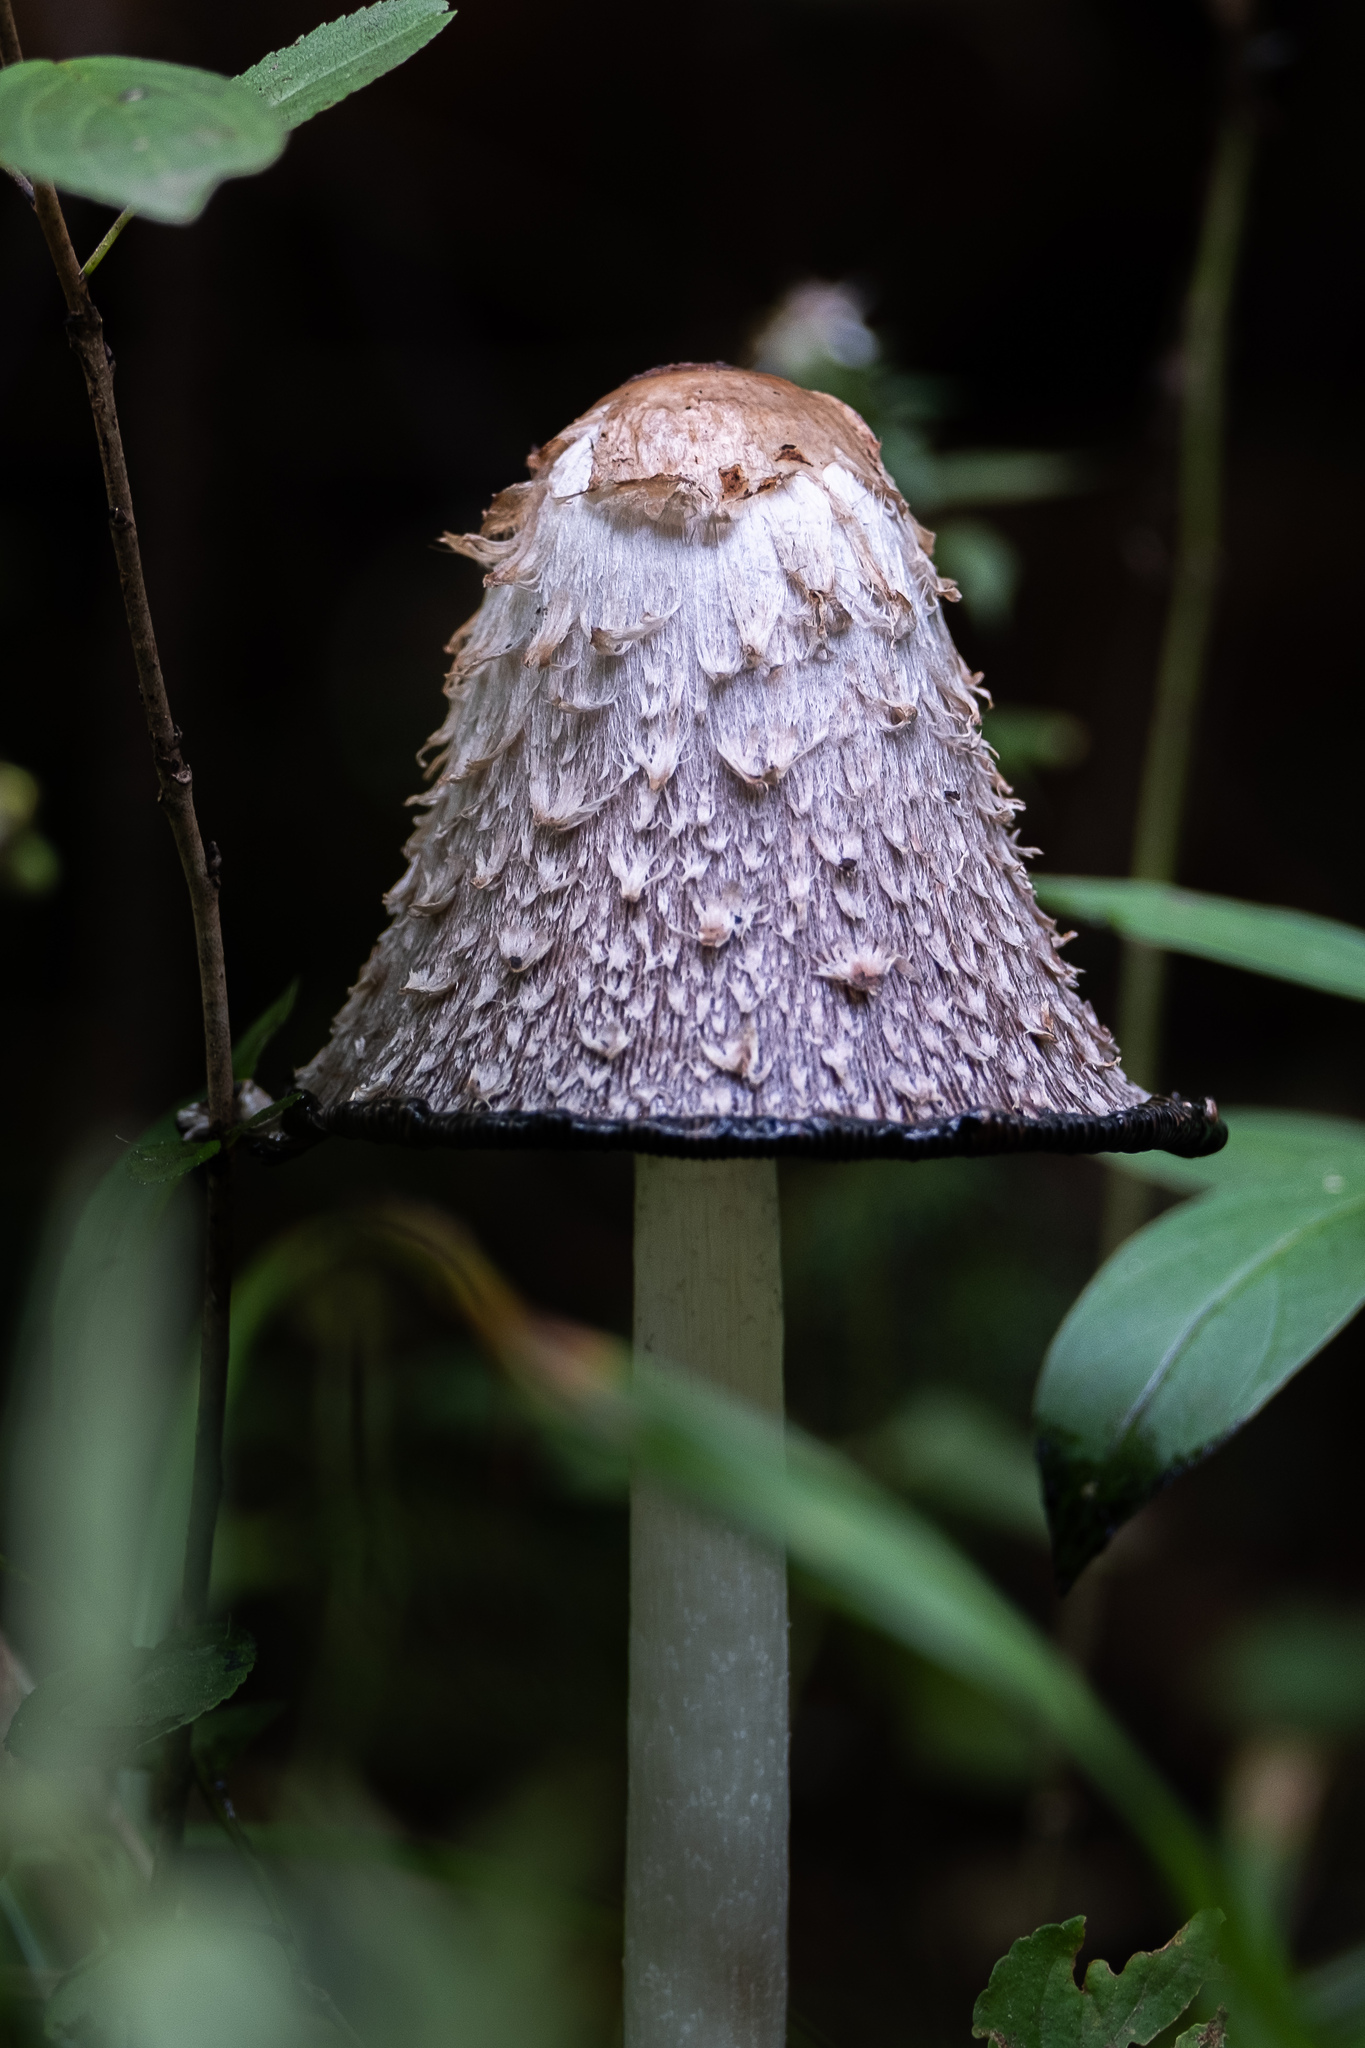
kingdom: Fungi
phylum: Basidiomycota
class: Agaricomycetes
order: Agaricales
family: Agaricaceae
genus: Coprinus
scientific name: Coprinus comatus
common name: Lawyer's wig
